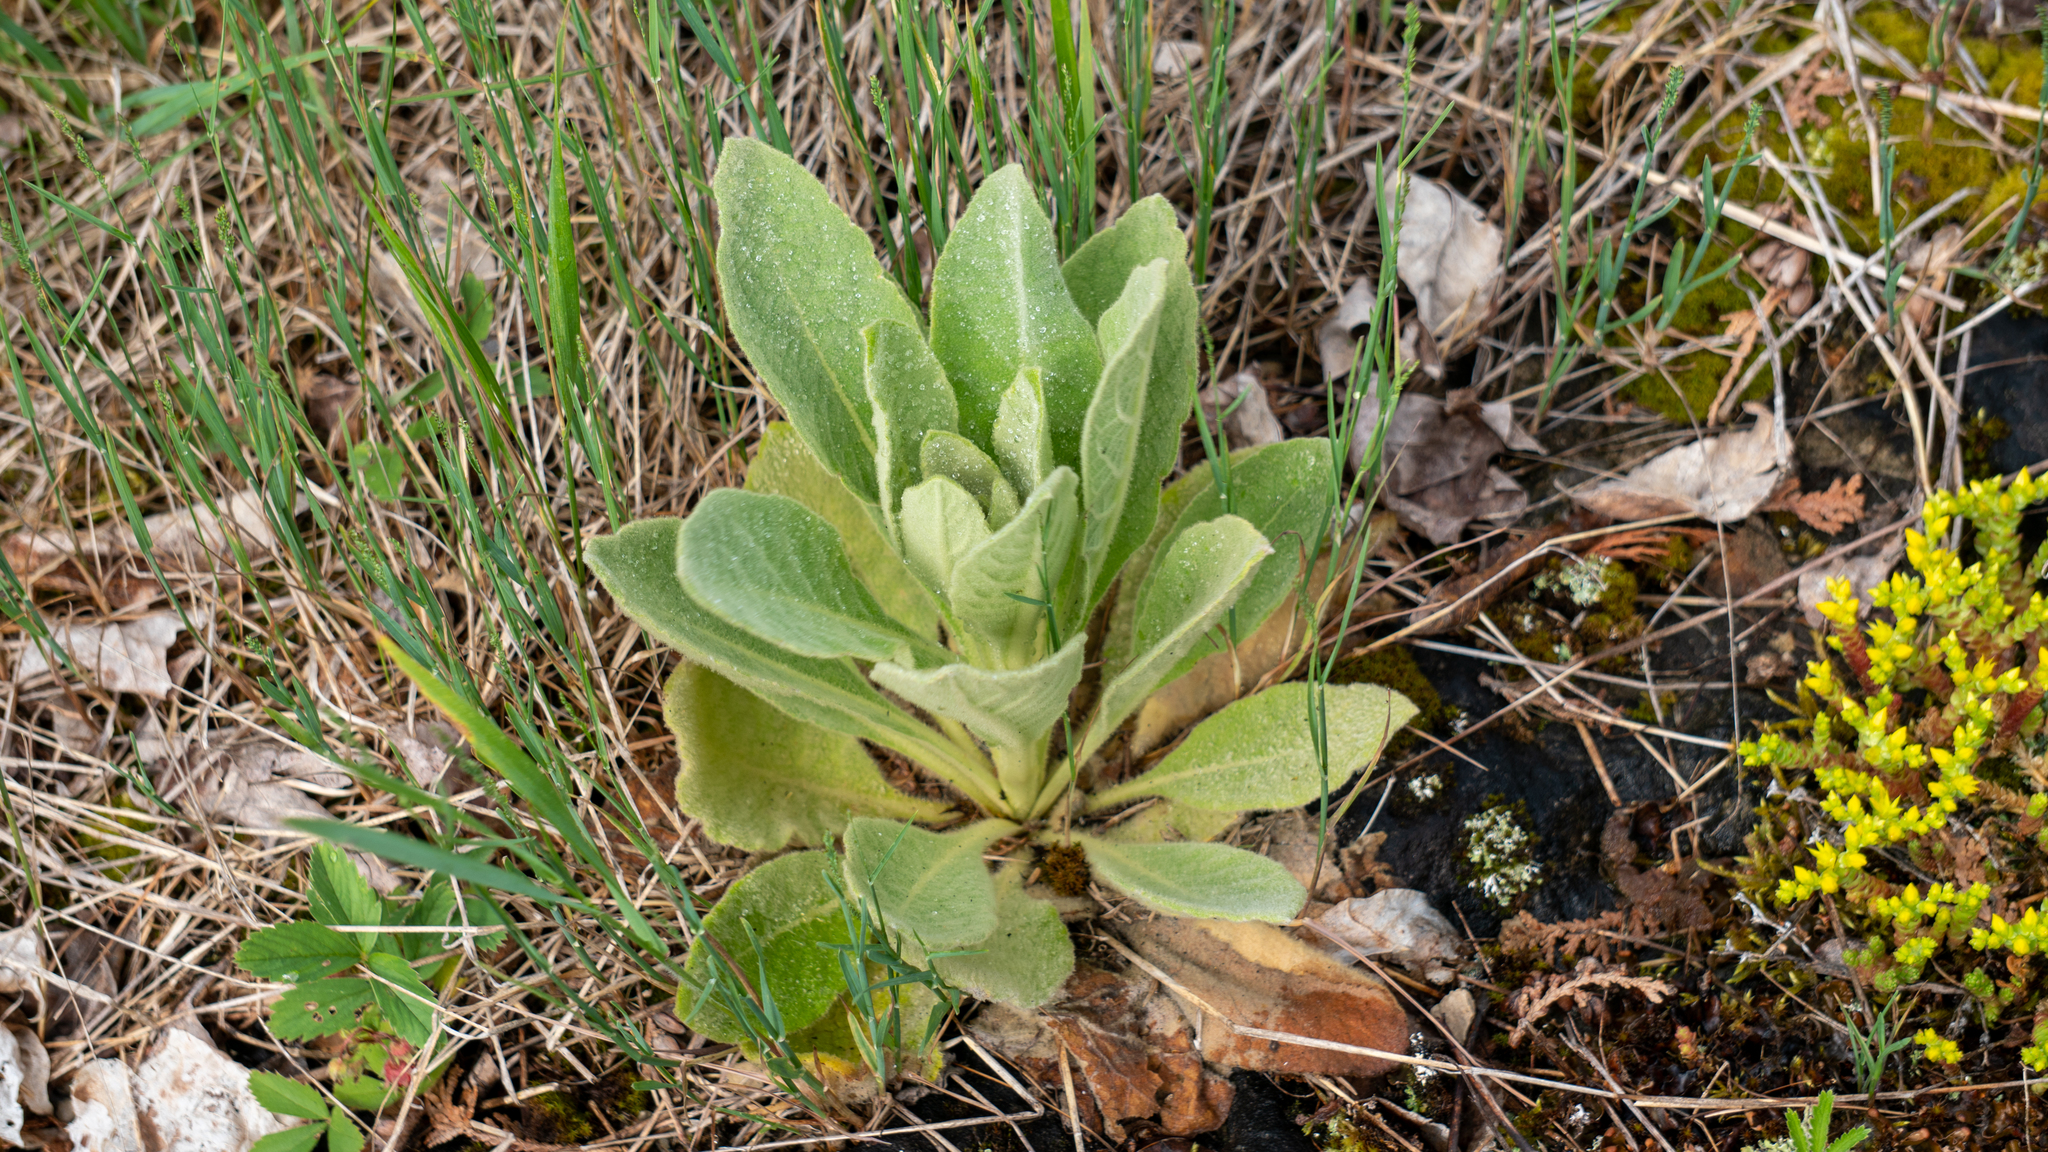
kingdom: Plantae
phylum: Tracheophyta
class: Magnoliopsida
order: Lamiales
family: Scrophulariaceae
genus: Verbascum
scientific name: Verbascum thapsus
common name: Common mullein
